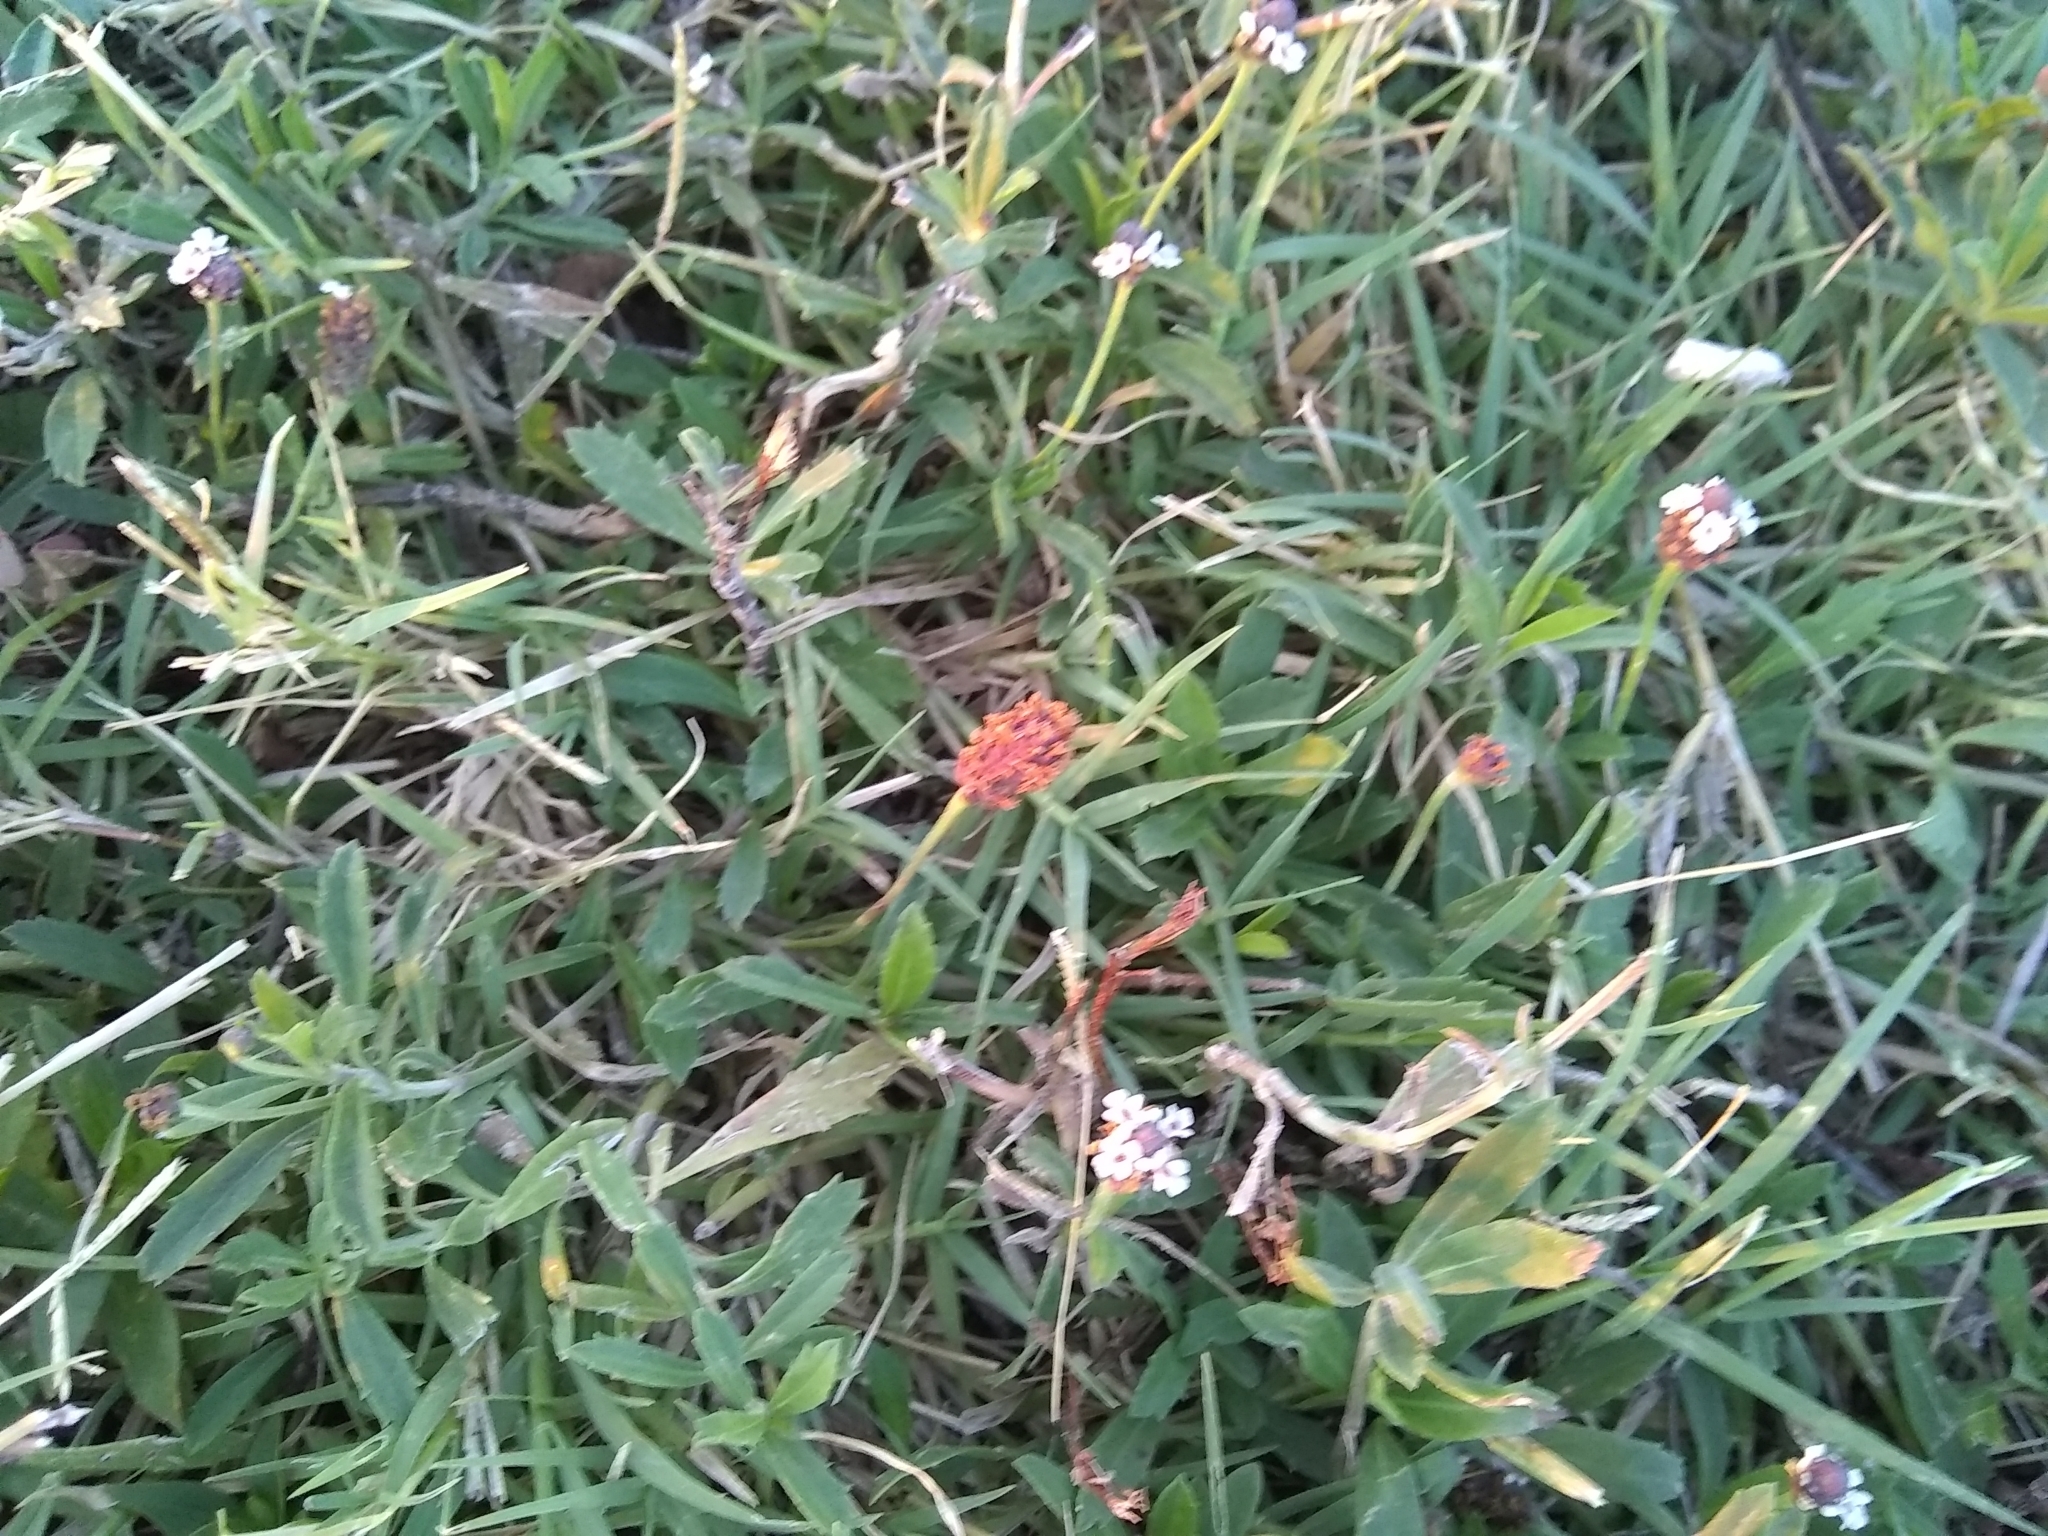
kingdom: Plantae
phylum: Tracheophyta
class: Magnoliopsida
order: Lamiales
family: Verbenaceae
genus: Phyla
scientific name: Phyla nodiflora
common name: Frogfruit
